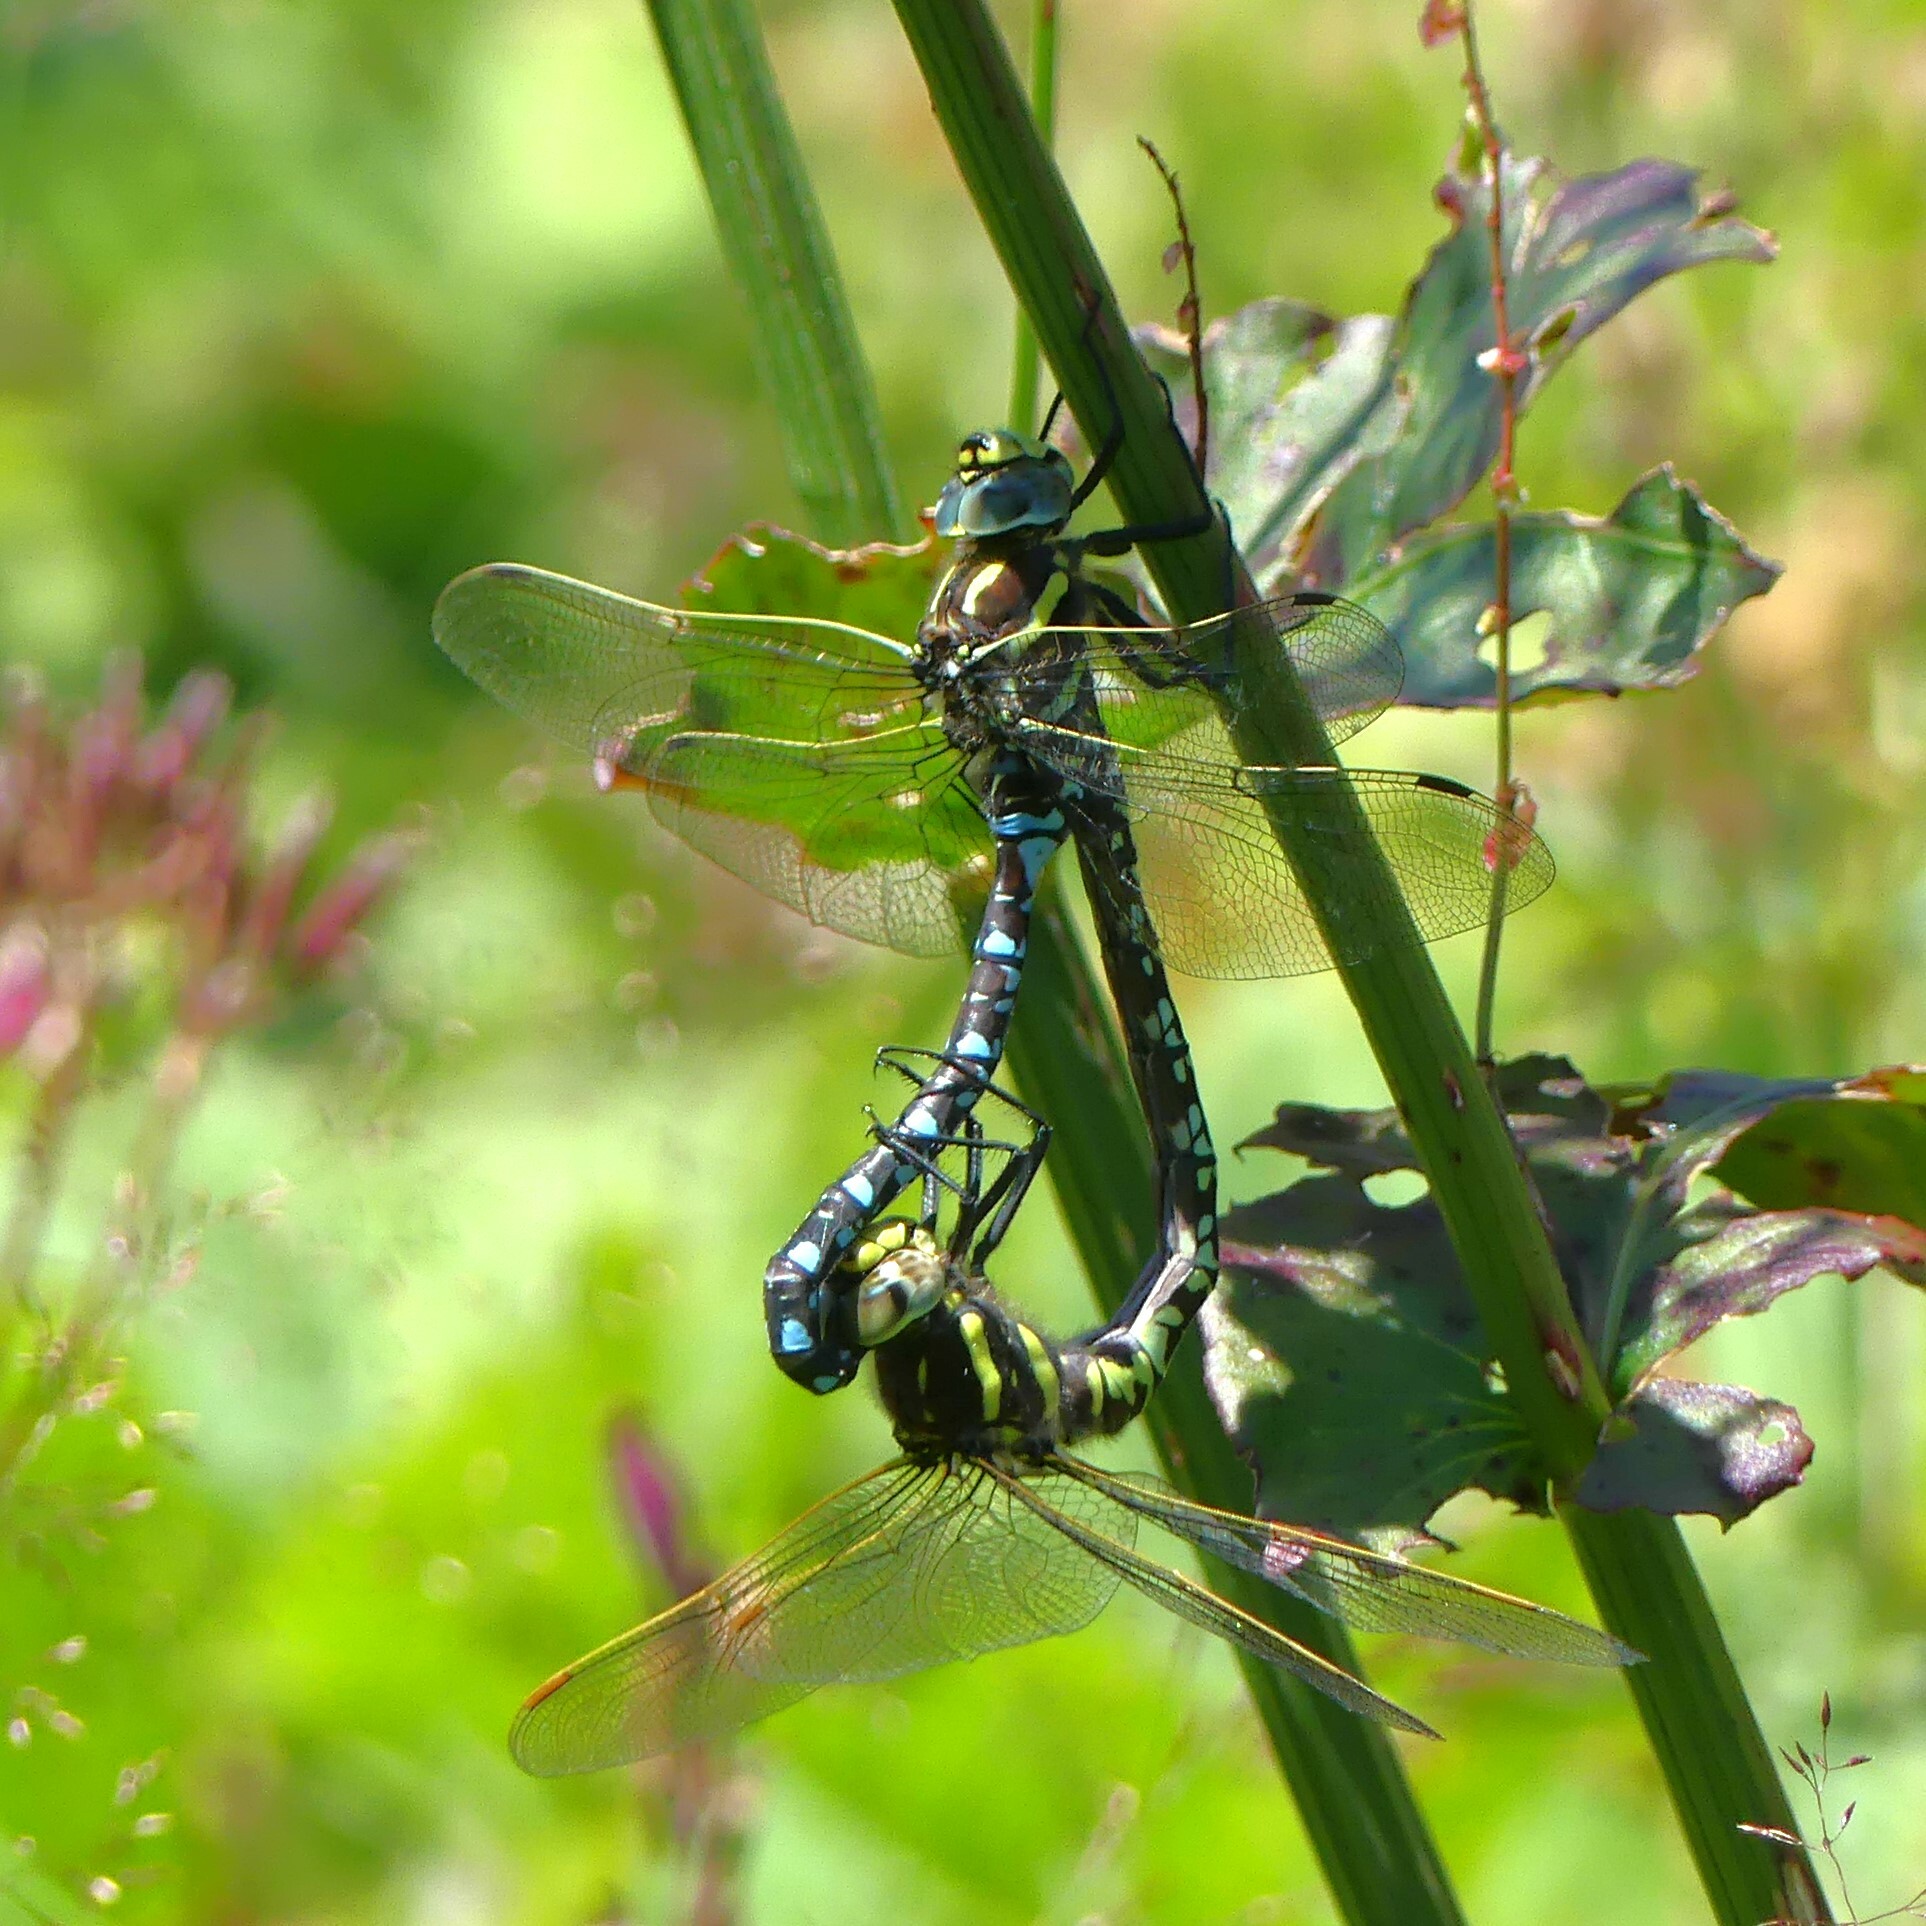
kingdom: Animalia
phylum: Arthropoda
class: Insecta
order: Odonata
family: Aeshnidae
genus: Aeshna
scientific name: Aeshna juncea
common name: Moorland hawker
